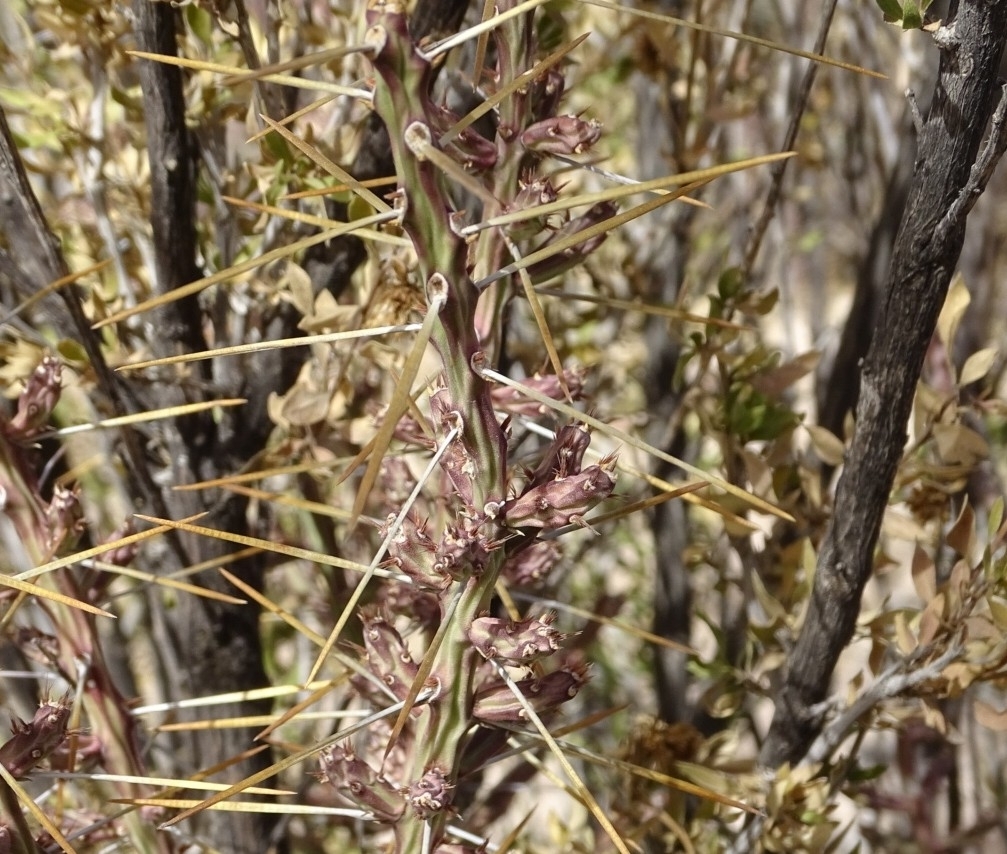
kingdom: Plantae
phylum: Tracheophyta
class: Magnoliopsida
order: Caryophyllales
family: Cactaceae
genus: Cylindropuntia
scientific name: Cylindropuntia leptocaulis
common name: Christmas cactus
